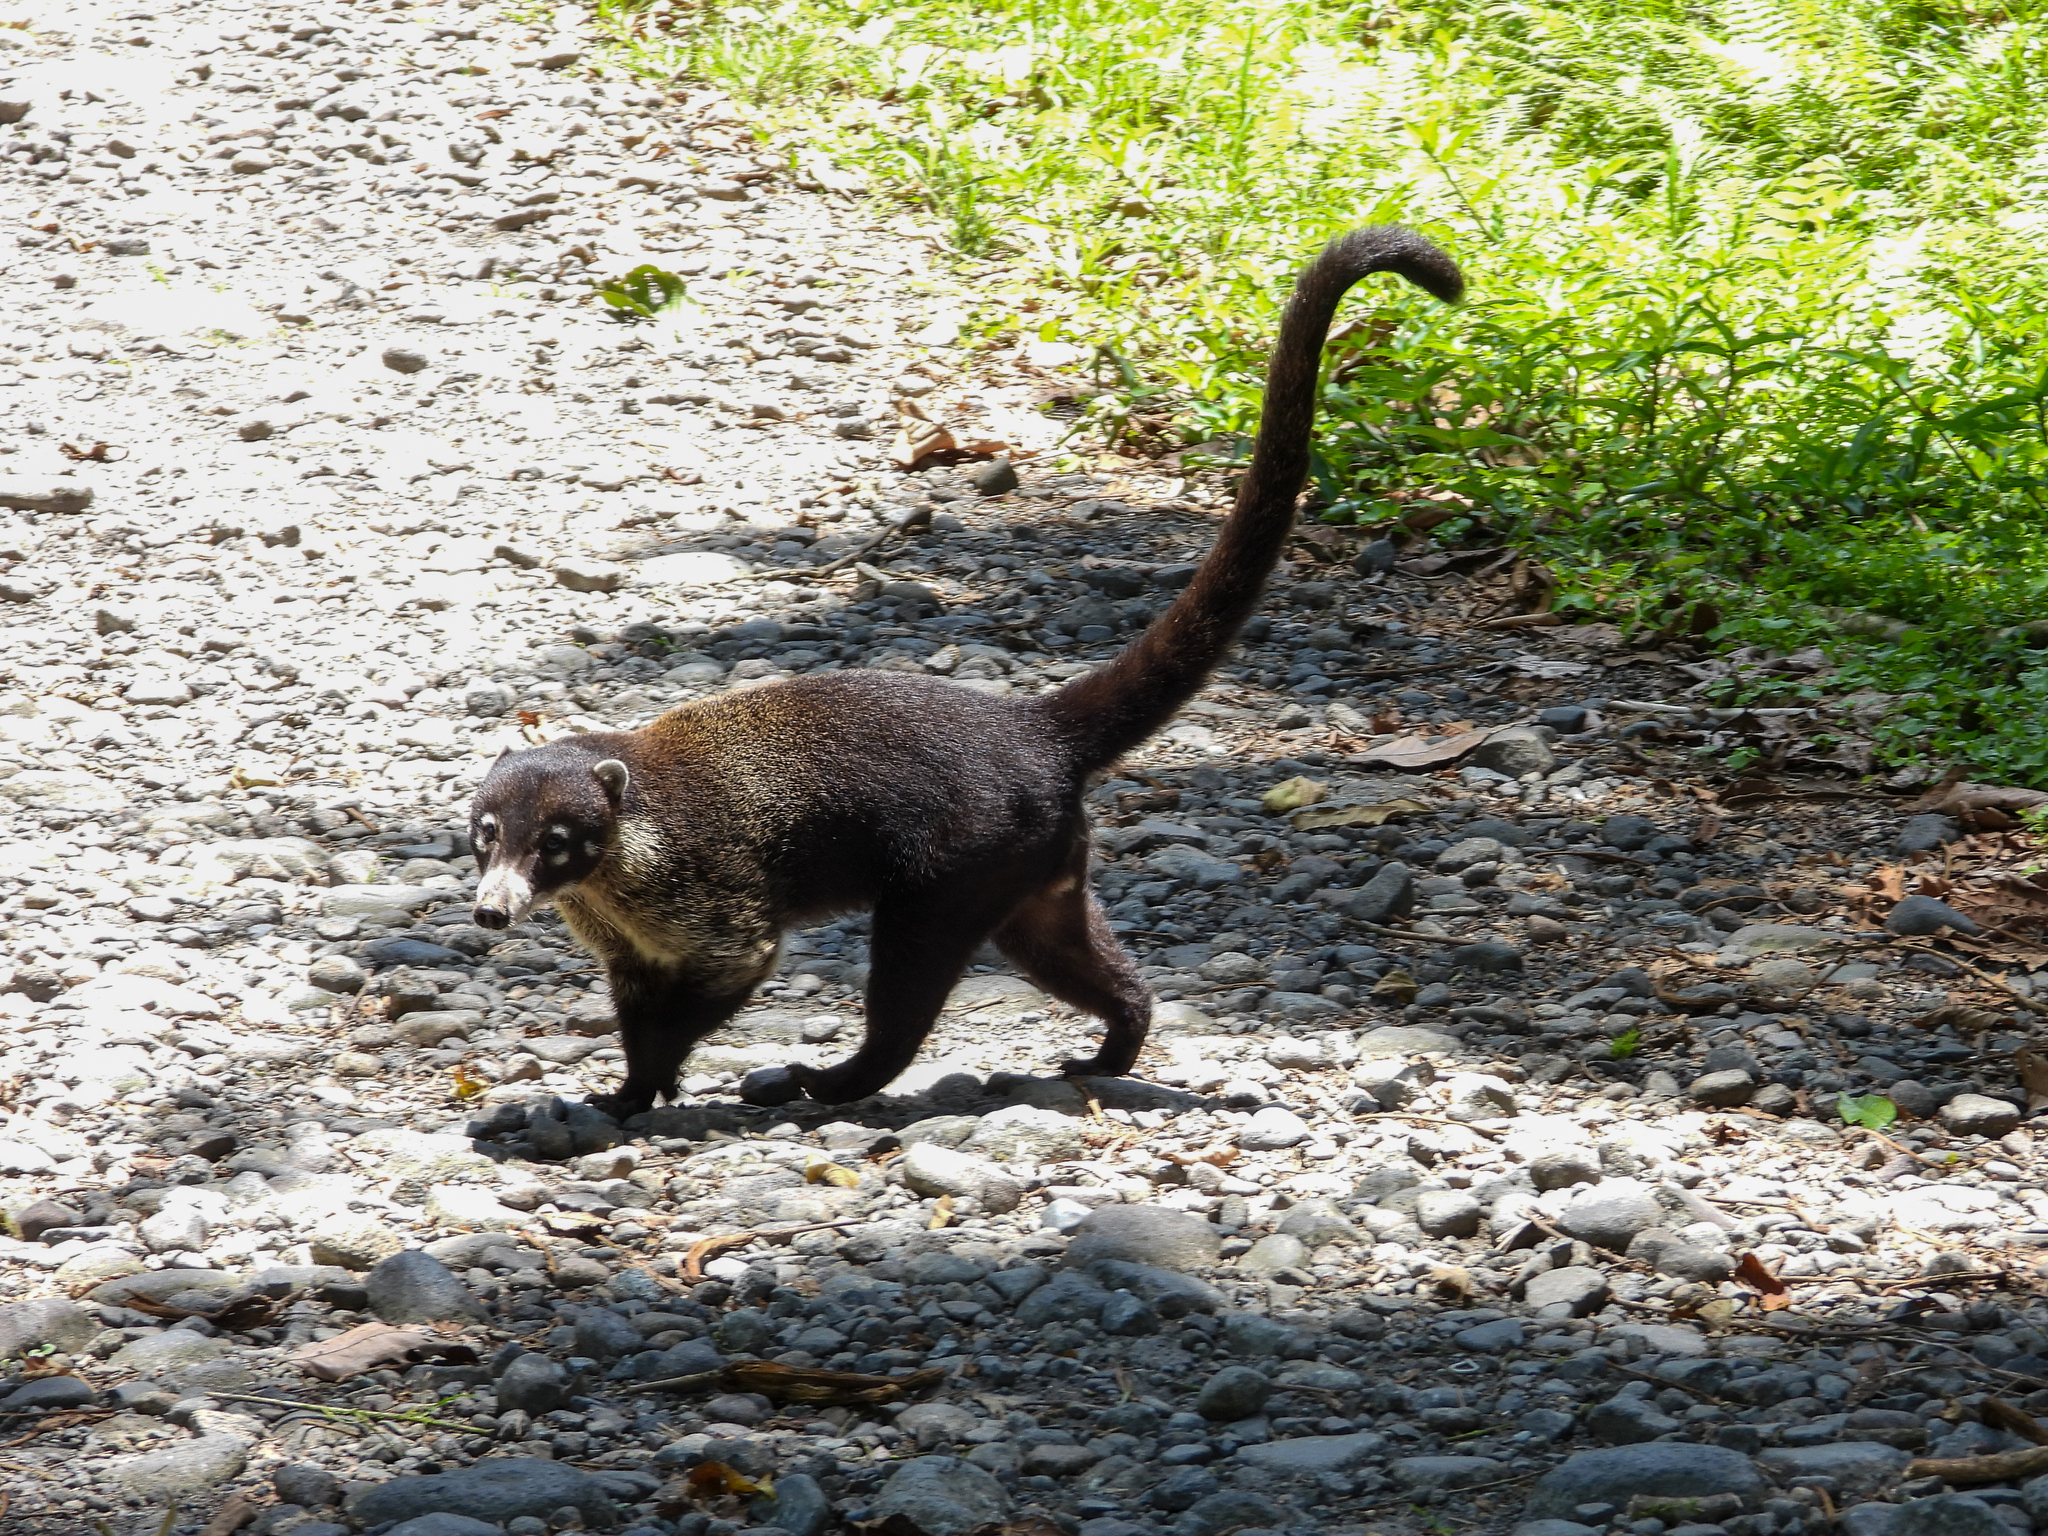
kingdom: Animalia
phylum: Chordata
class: Mammalia
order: Carnivora
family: Procyonidae
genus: Nasua
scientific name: Nasua narica
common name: White-nosed coati
